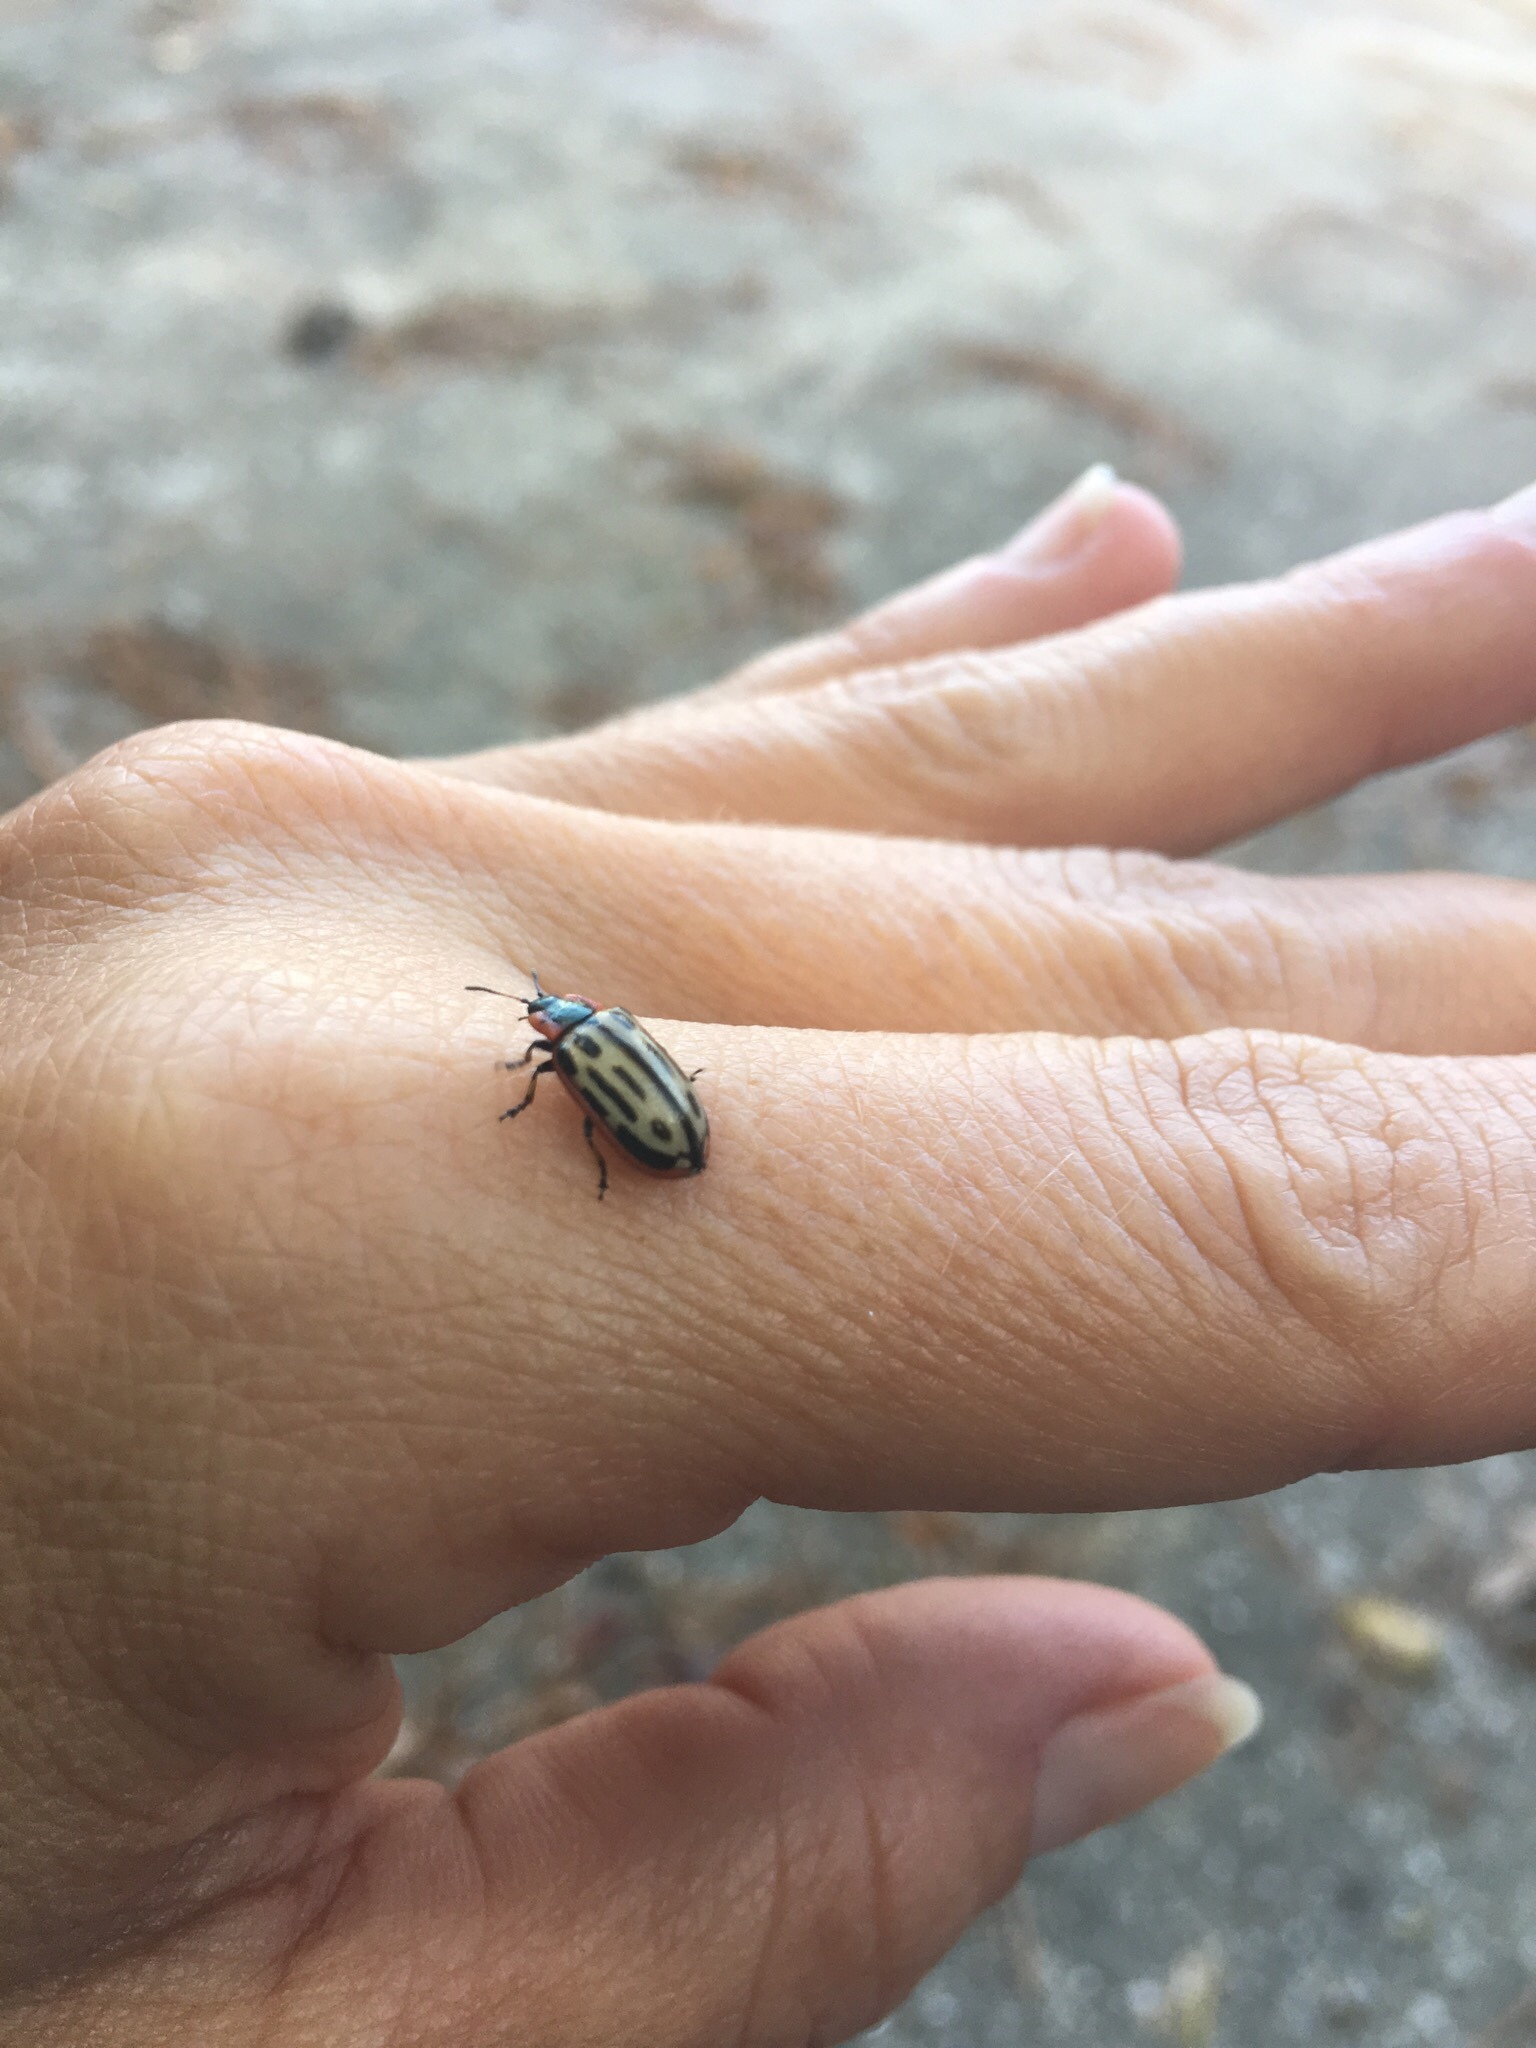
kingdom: Animalia
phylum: Arthropoda
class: Insecta
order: Coleoptera
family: Chrysomelidae
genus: Aethiopocassis
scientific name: Aethiopocassis scripta
